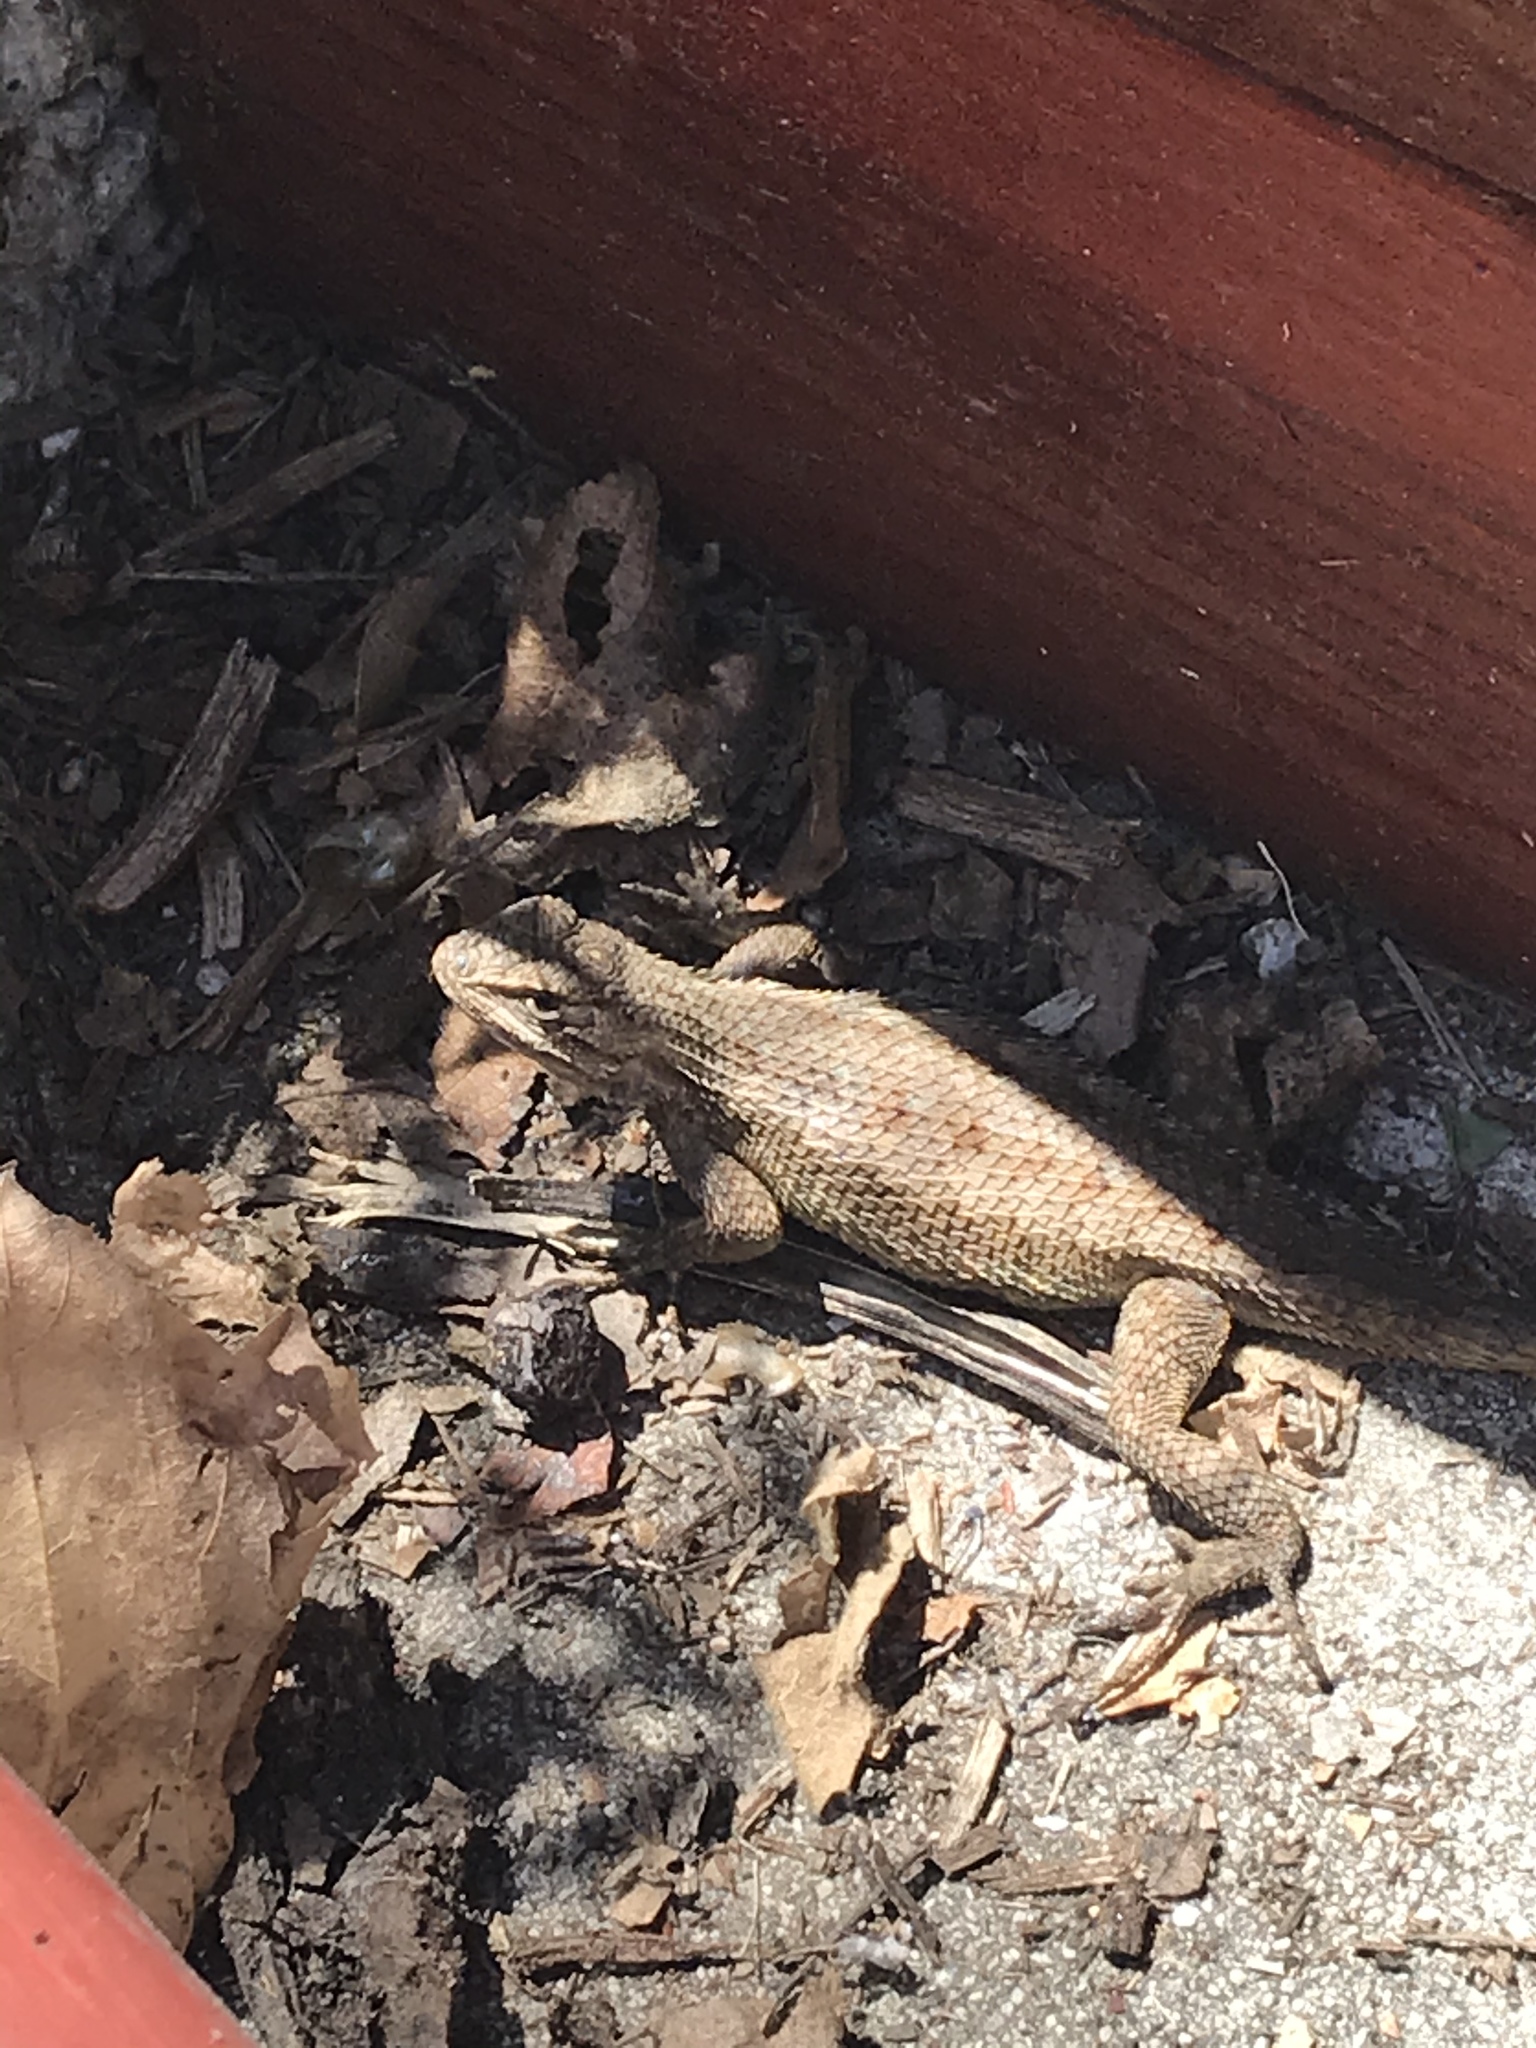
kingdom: Animalia
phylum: Chordata
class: Squamata
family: Phrynosomatidae
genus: Sceloporus
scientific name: Sceloporus occidentalis
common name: Western fence lizard
